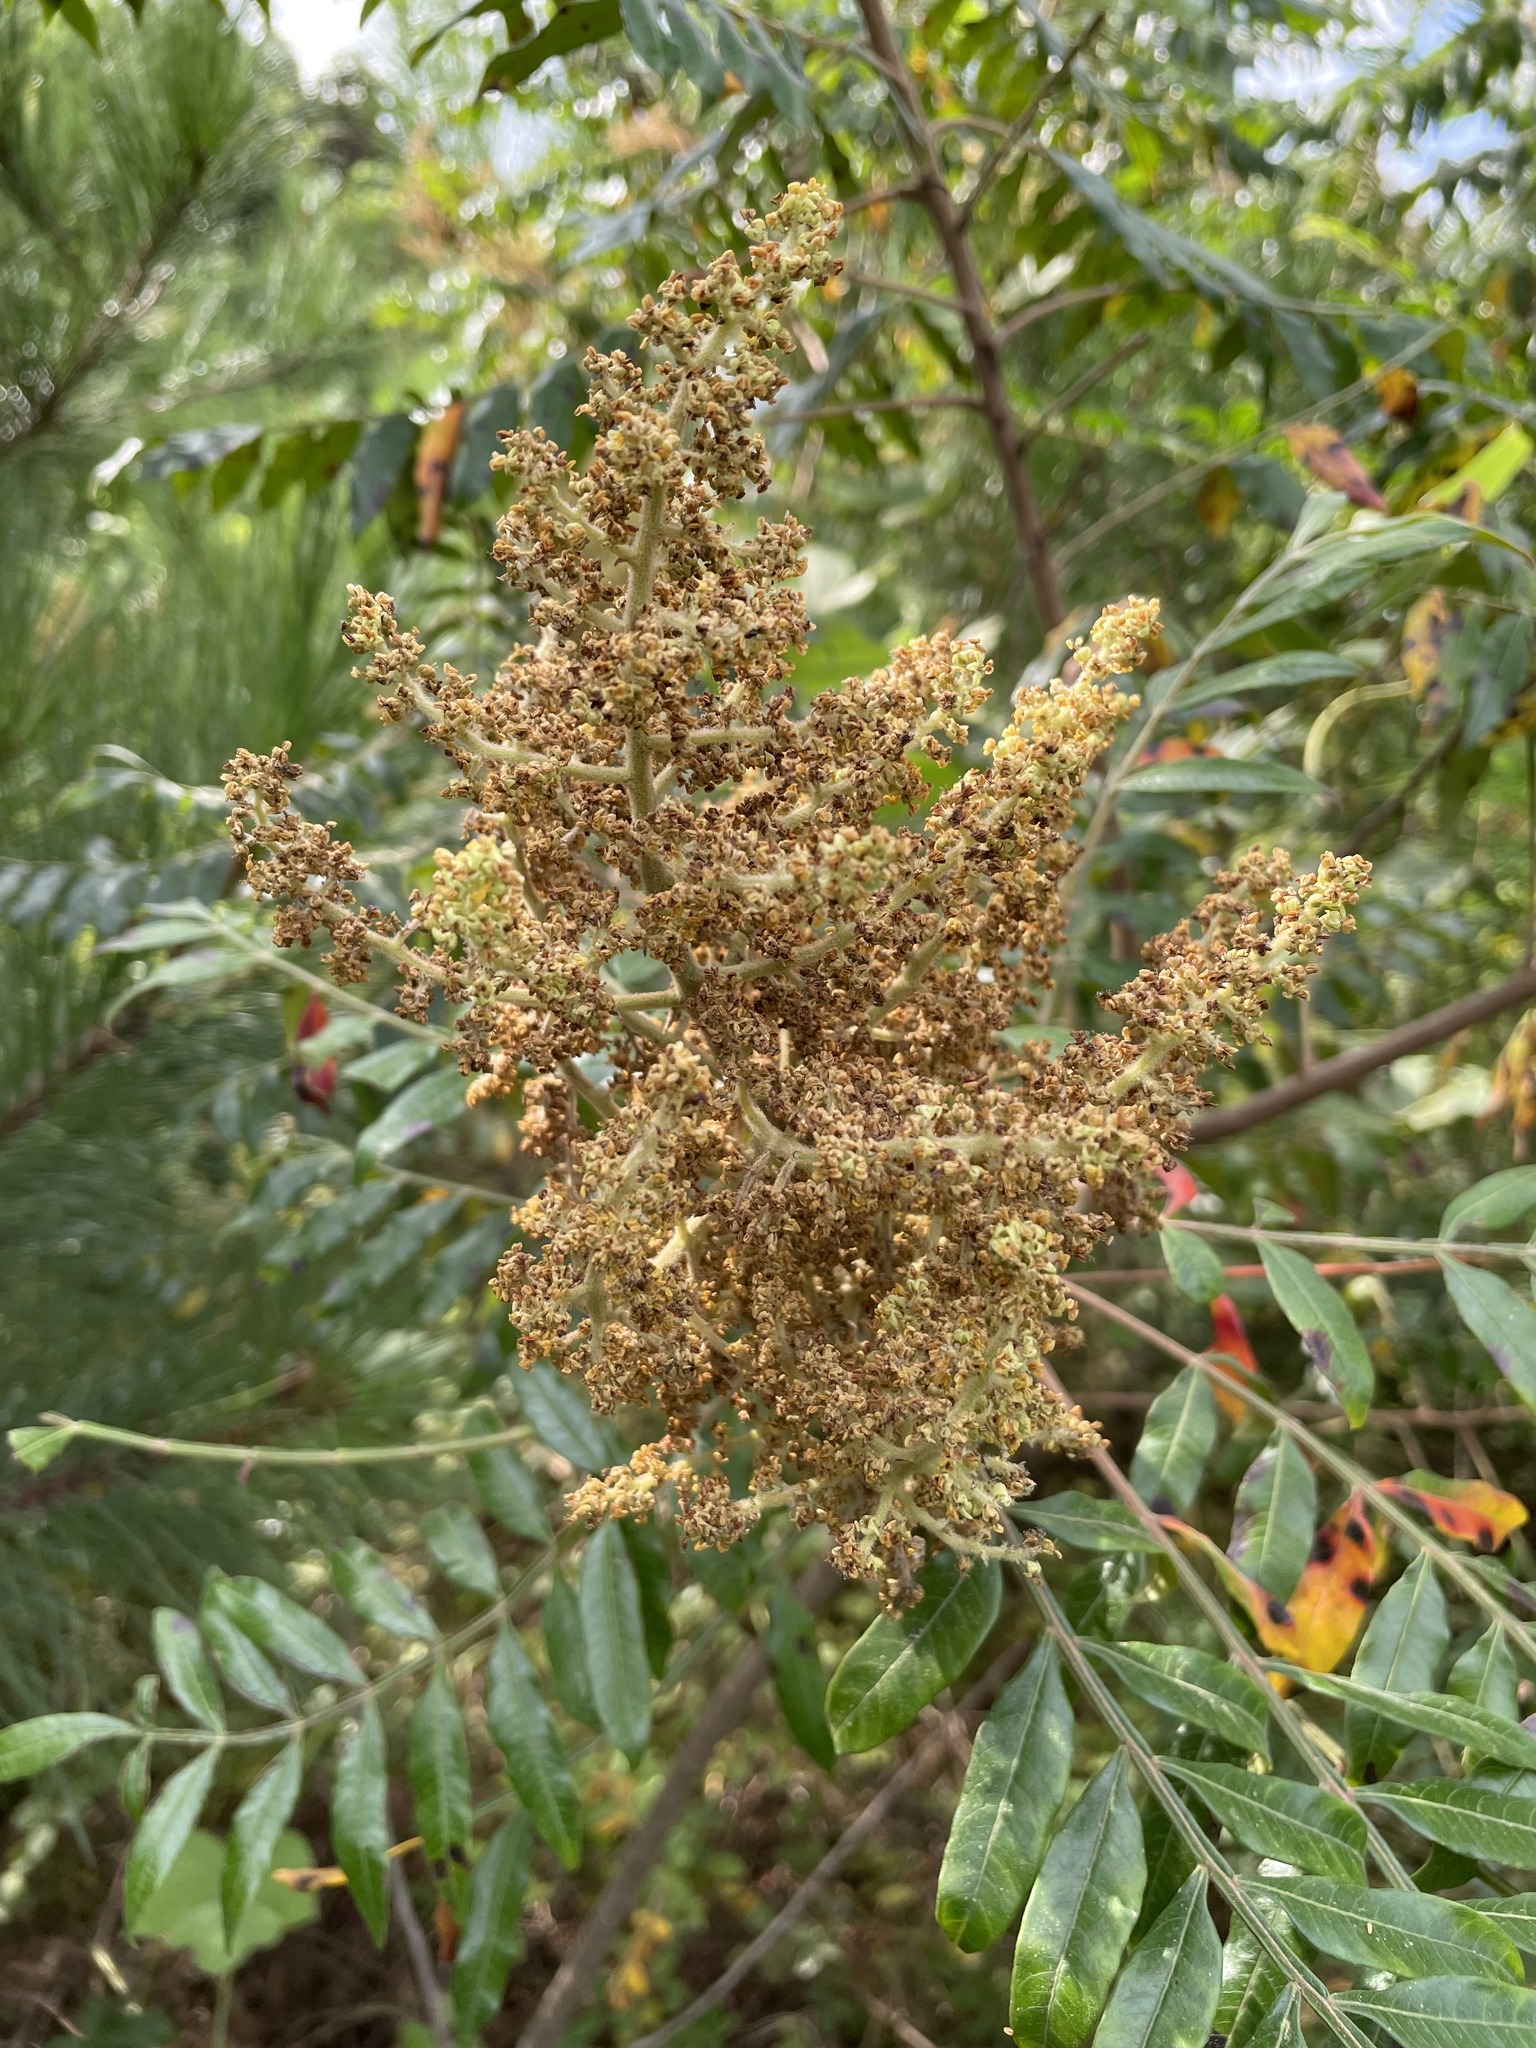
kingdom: Plantae
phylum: Tracheophyta
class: Magnoliopsida
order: Sapindales
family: Anacardiaceae
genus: Rhus
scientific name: Rhus copallina
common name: Shining sumac
